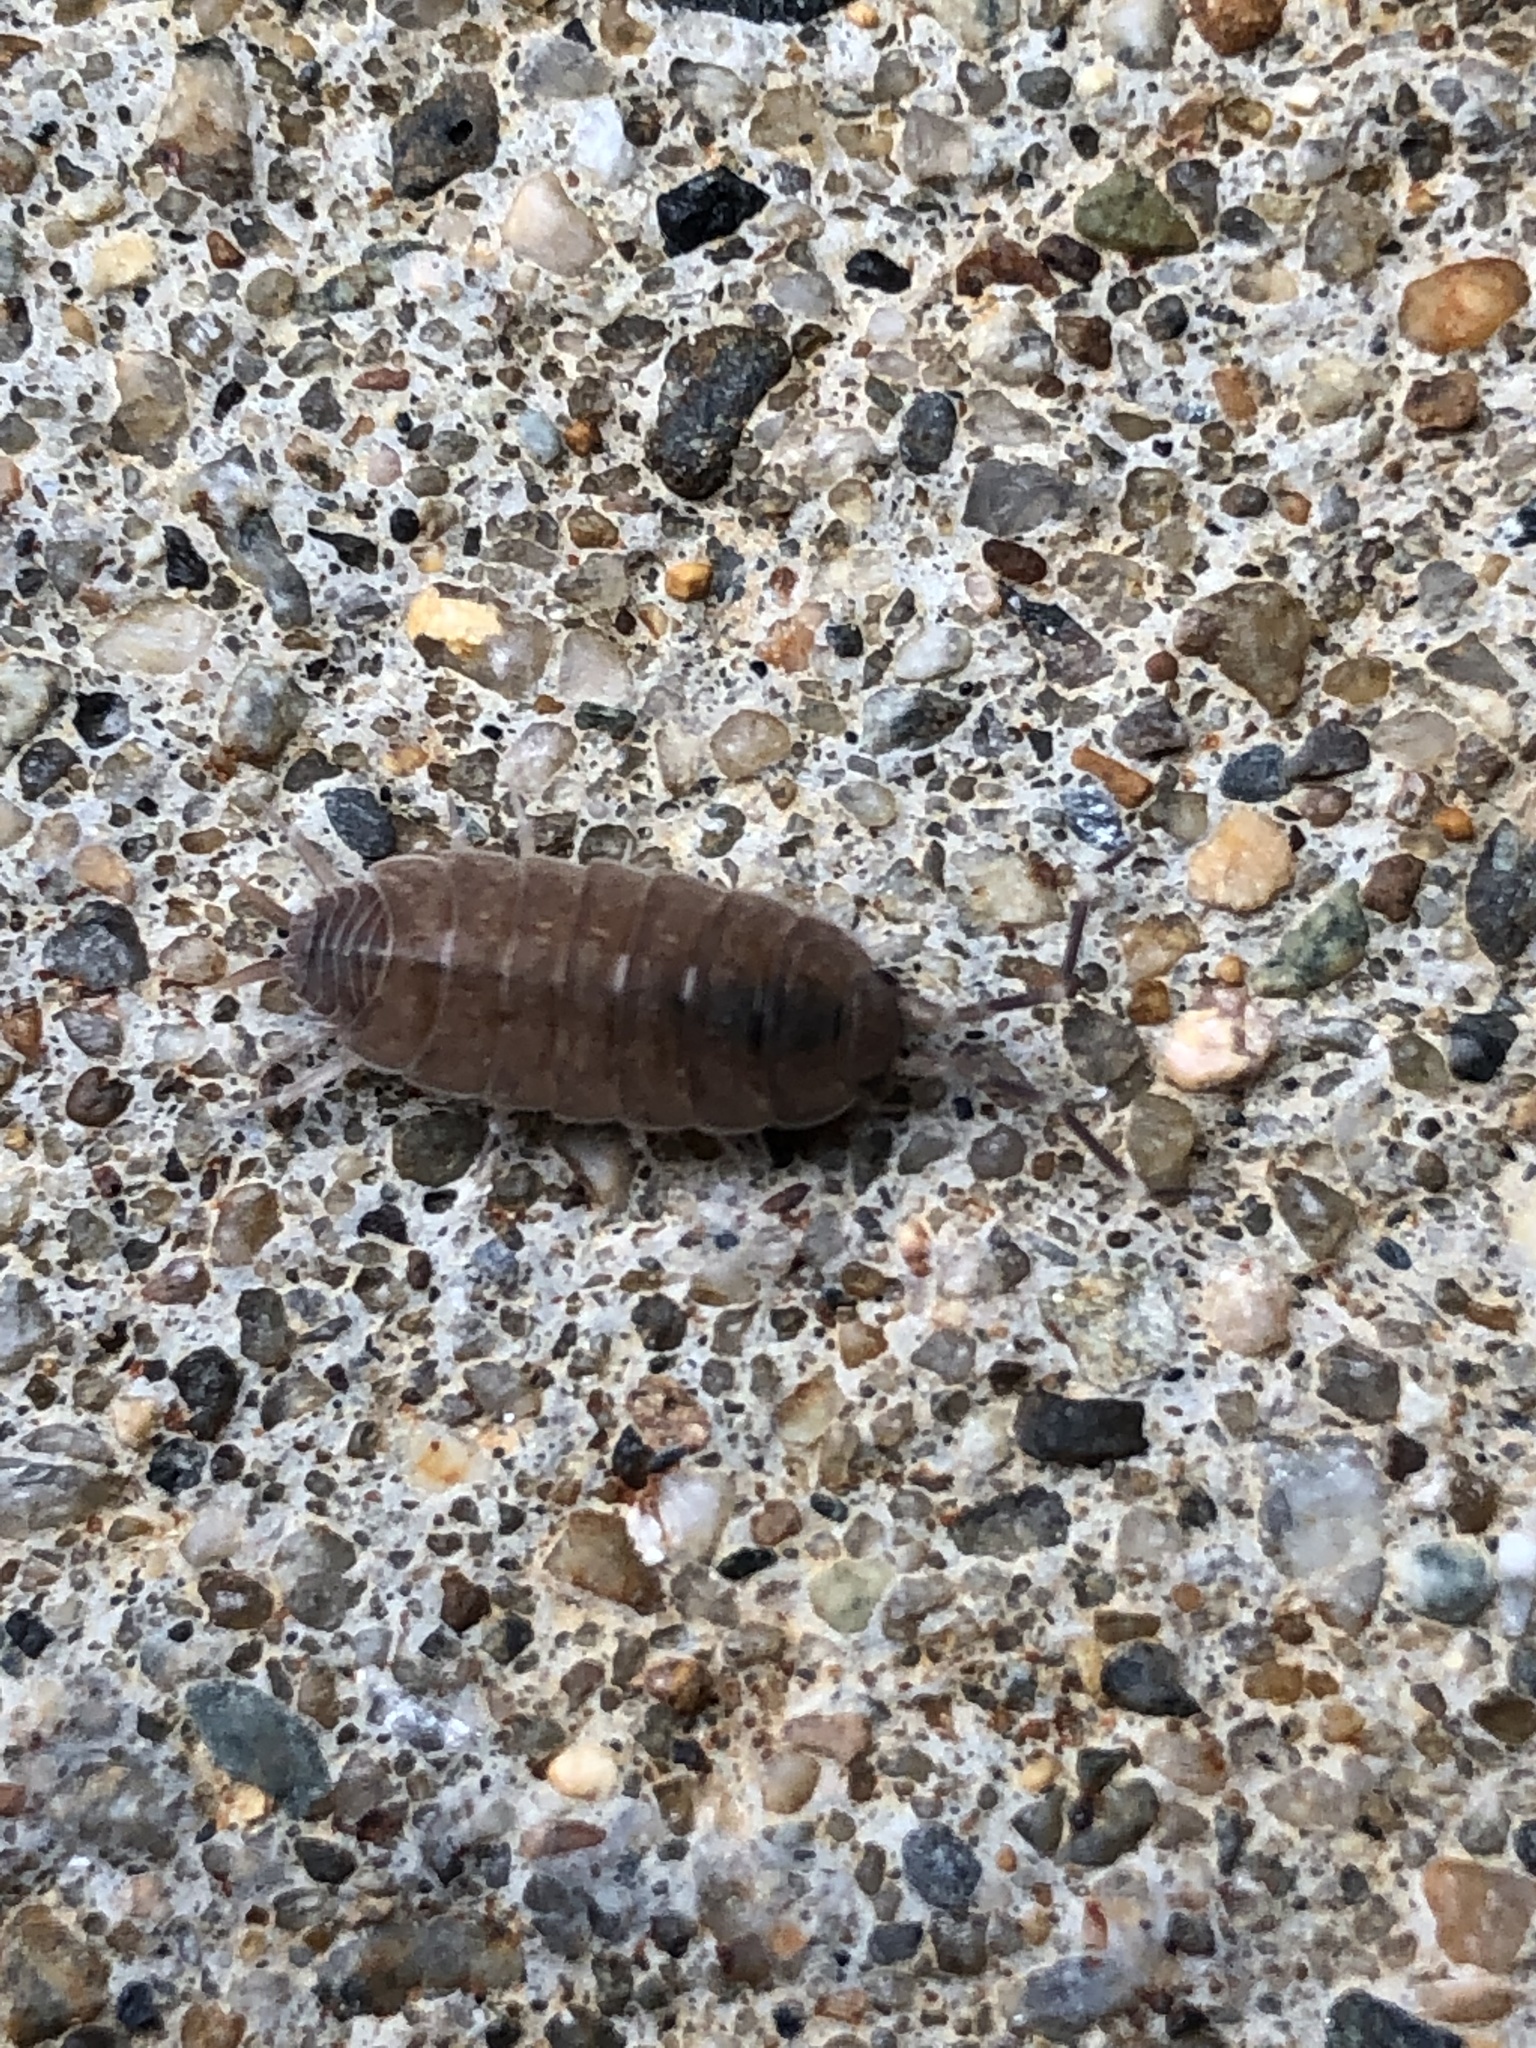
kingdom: Animalia
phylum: Arthropoda
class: Malacostraca
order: Isopoda
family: Porcellionidae
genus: Porcellionides
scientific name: Porcellionides pruinosus
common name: Plum woodlouse
